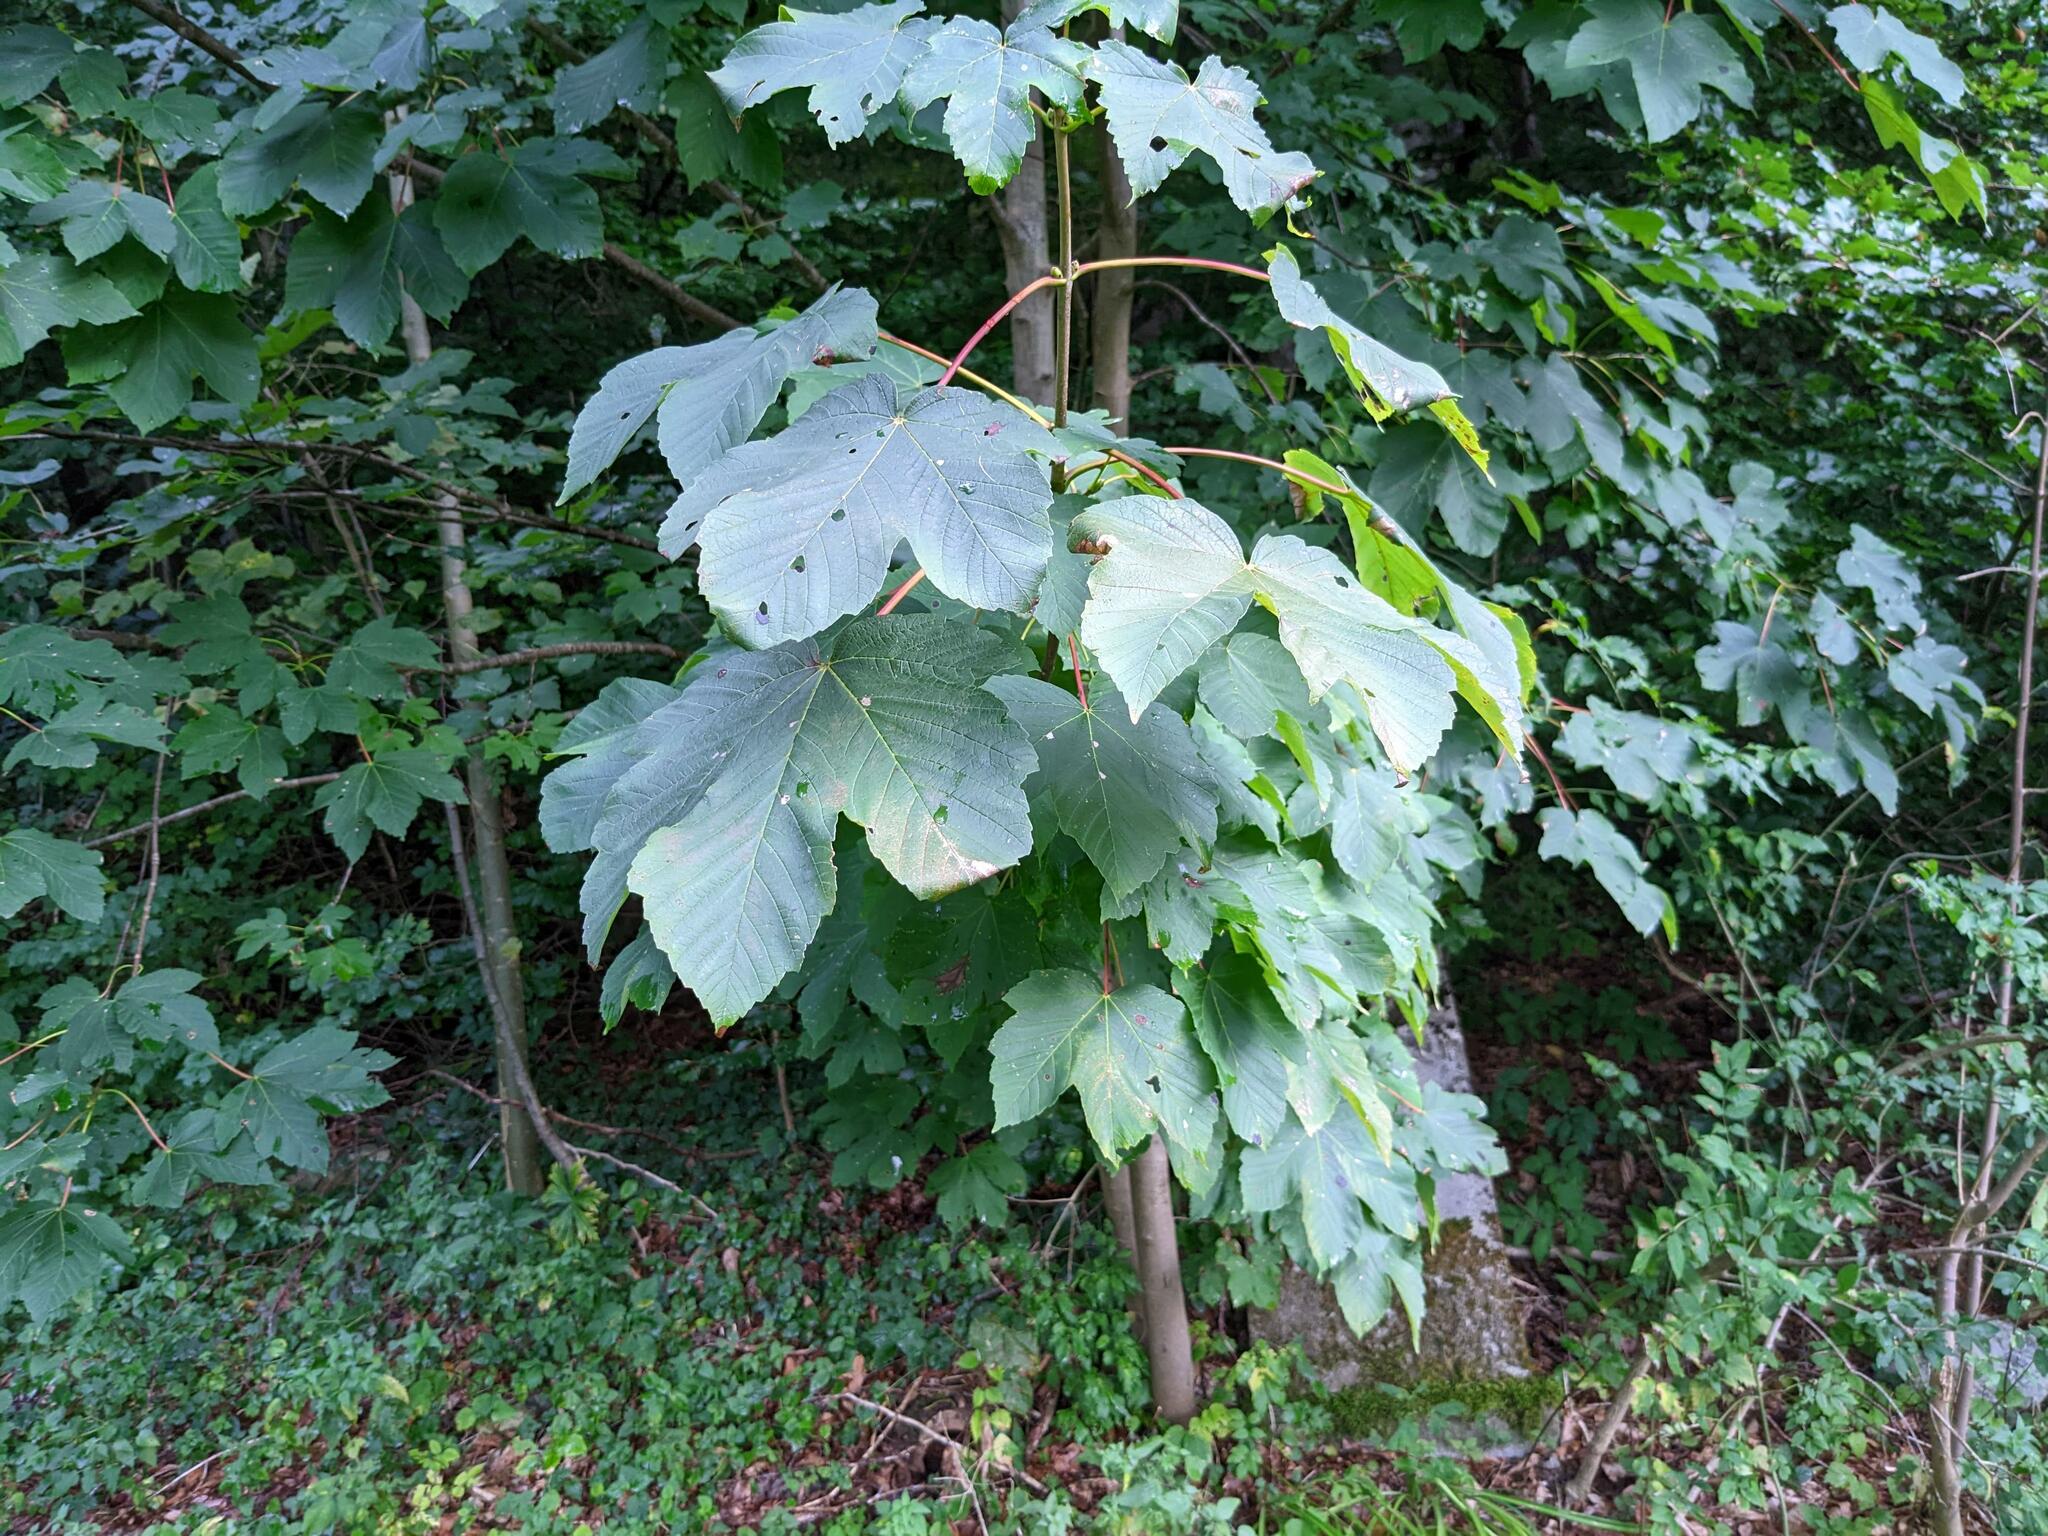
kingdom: Plantae
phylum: Tracheophyta
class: Magnoliopsida
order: Sapindales
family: Sapindaceae
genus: Acer
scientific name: Acer pseudoplatanus
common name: Sycamore
